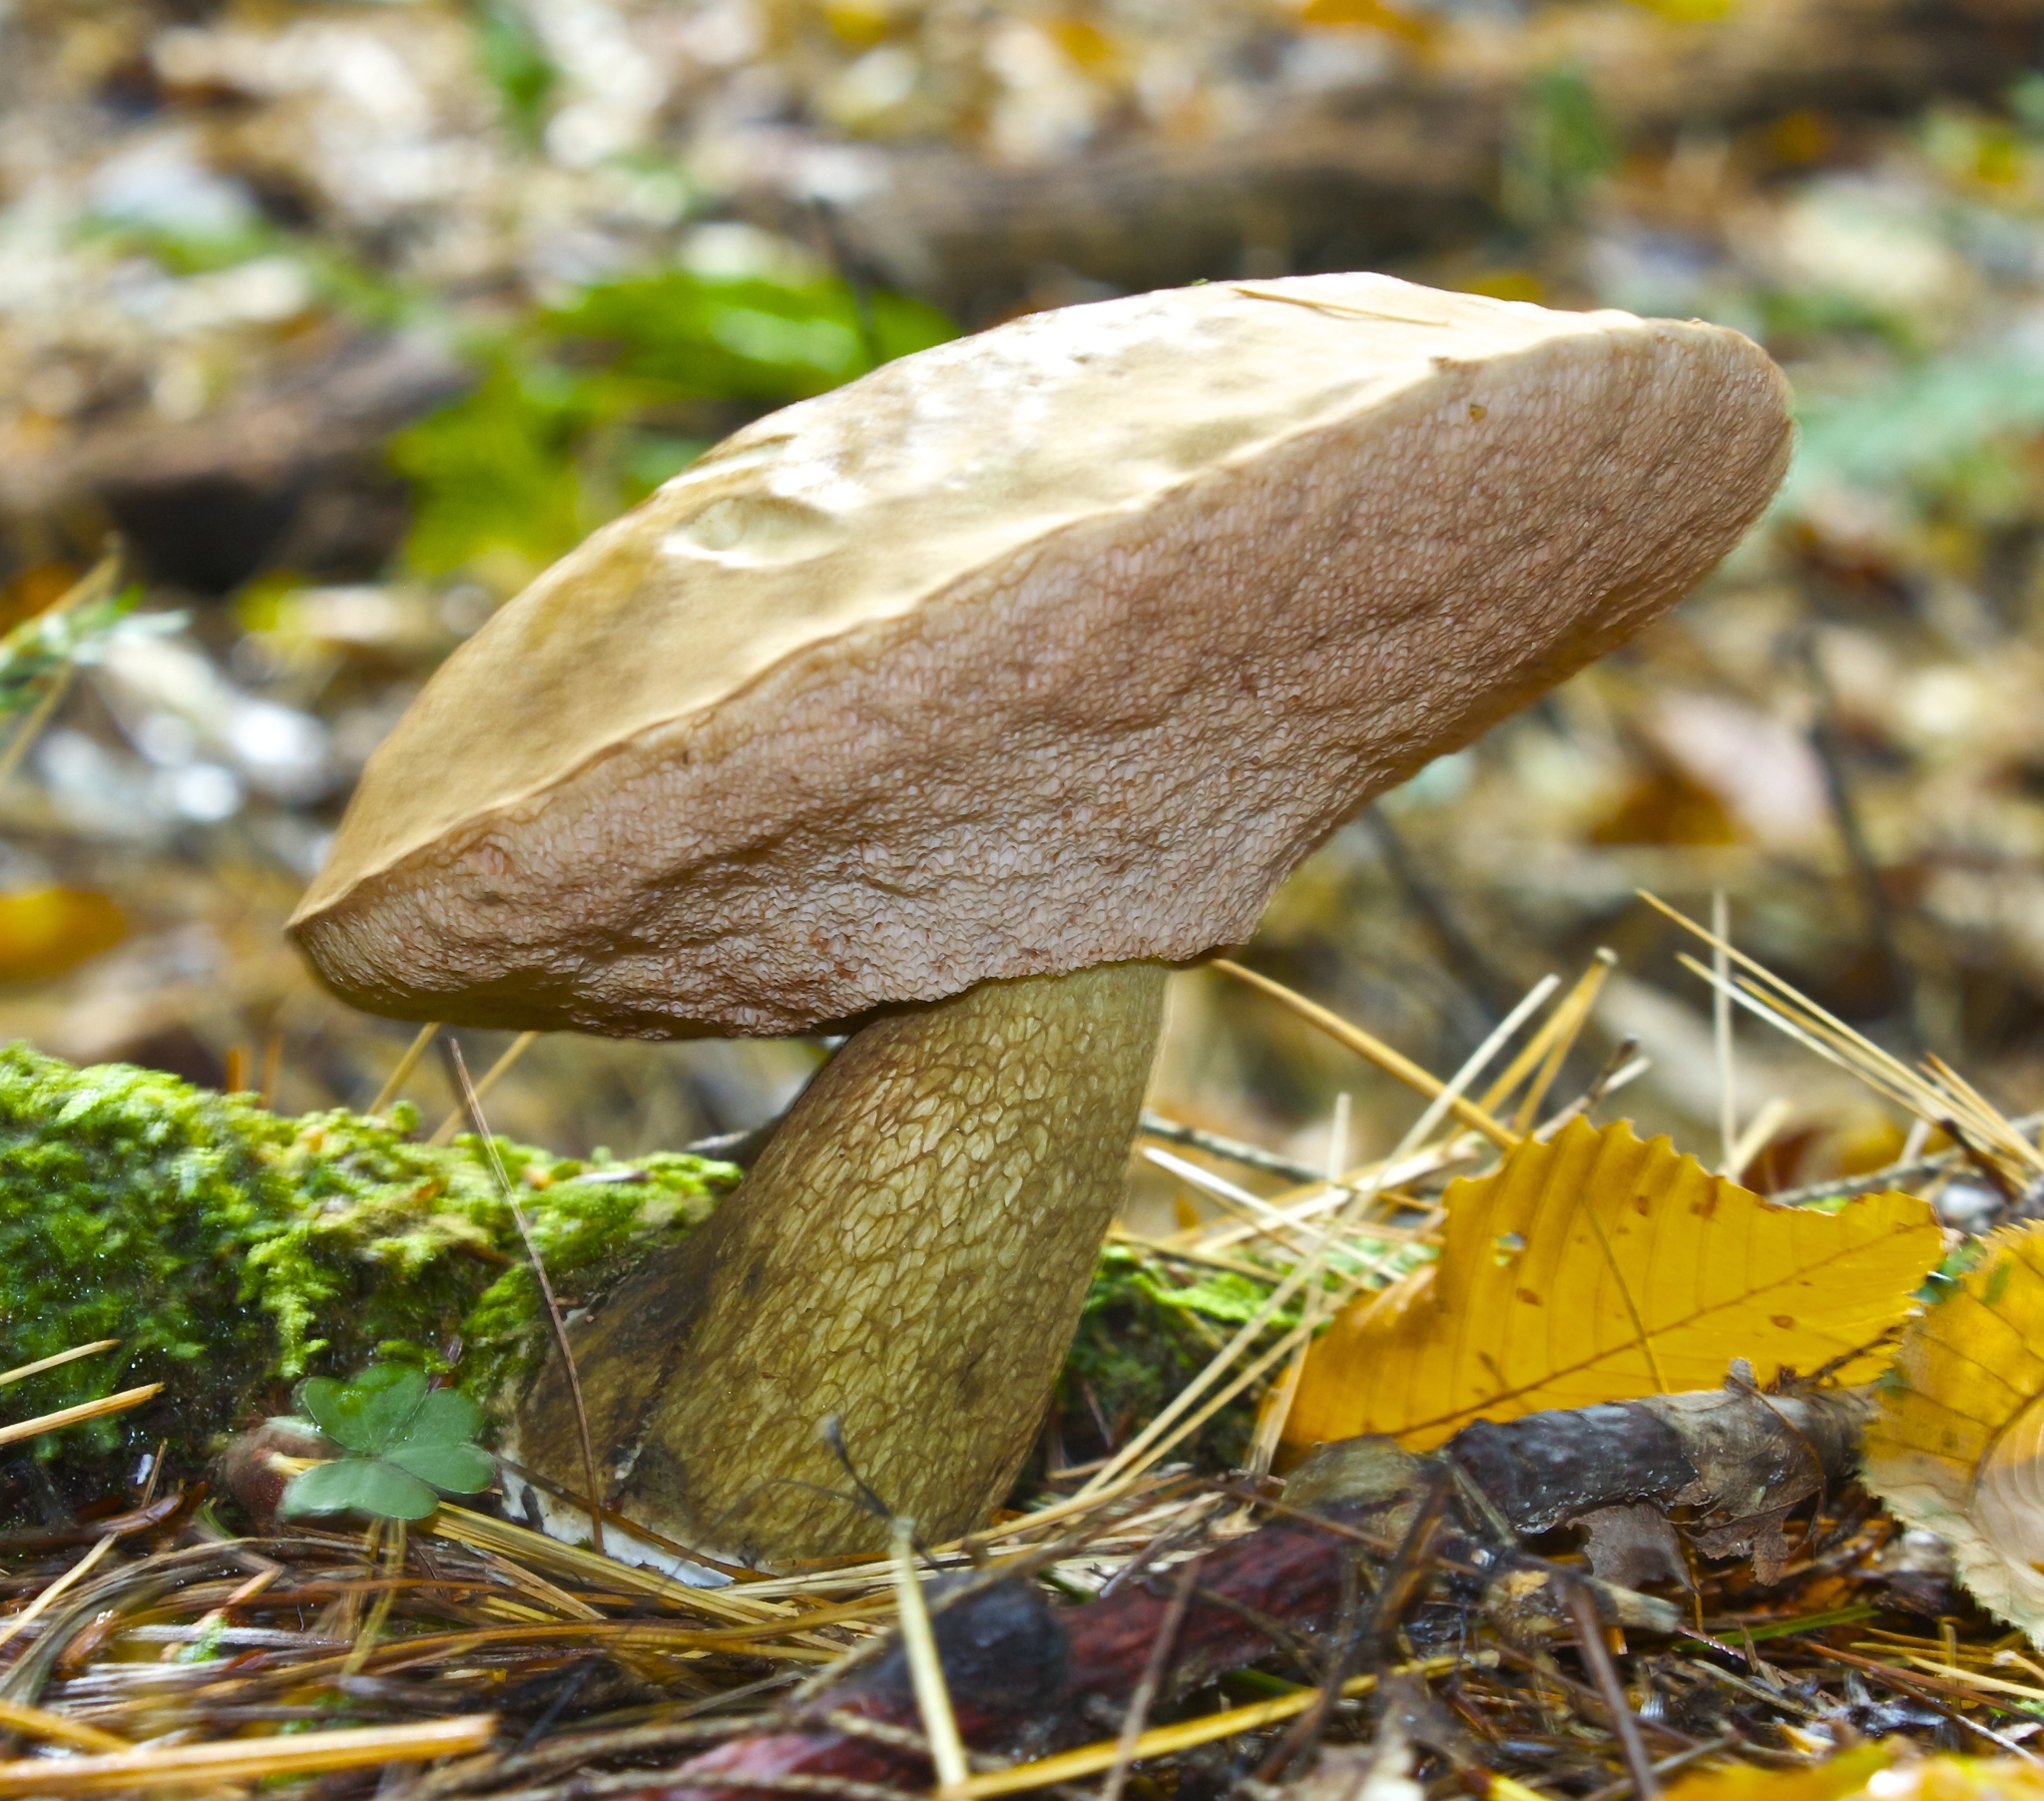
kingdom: Fungi
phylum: Basidiomycota
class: Agaricomycetes
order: Boletales
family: Boletaceae
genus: Tylopilus
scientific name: Tylopilus felleus
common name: Bitter bolete
